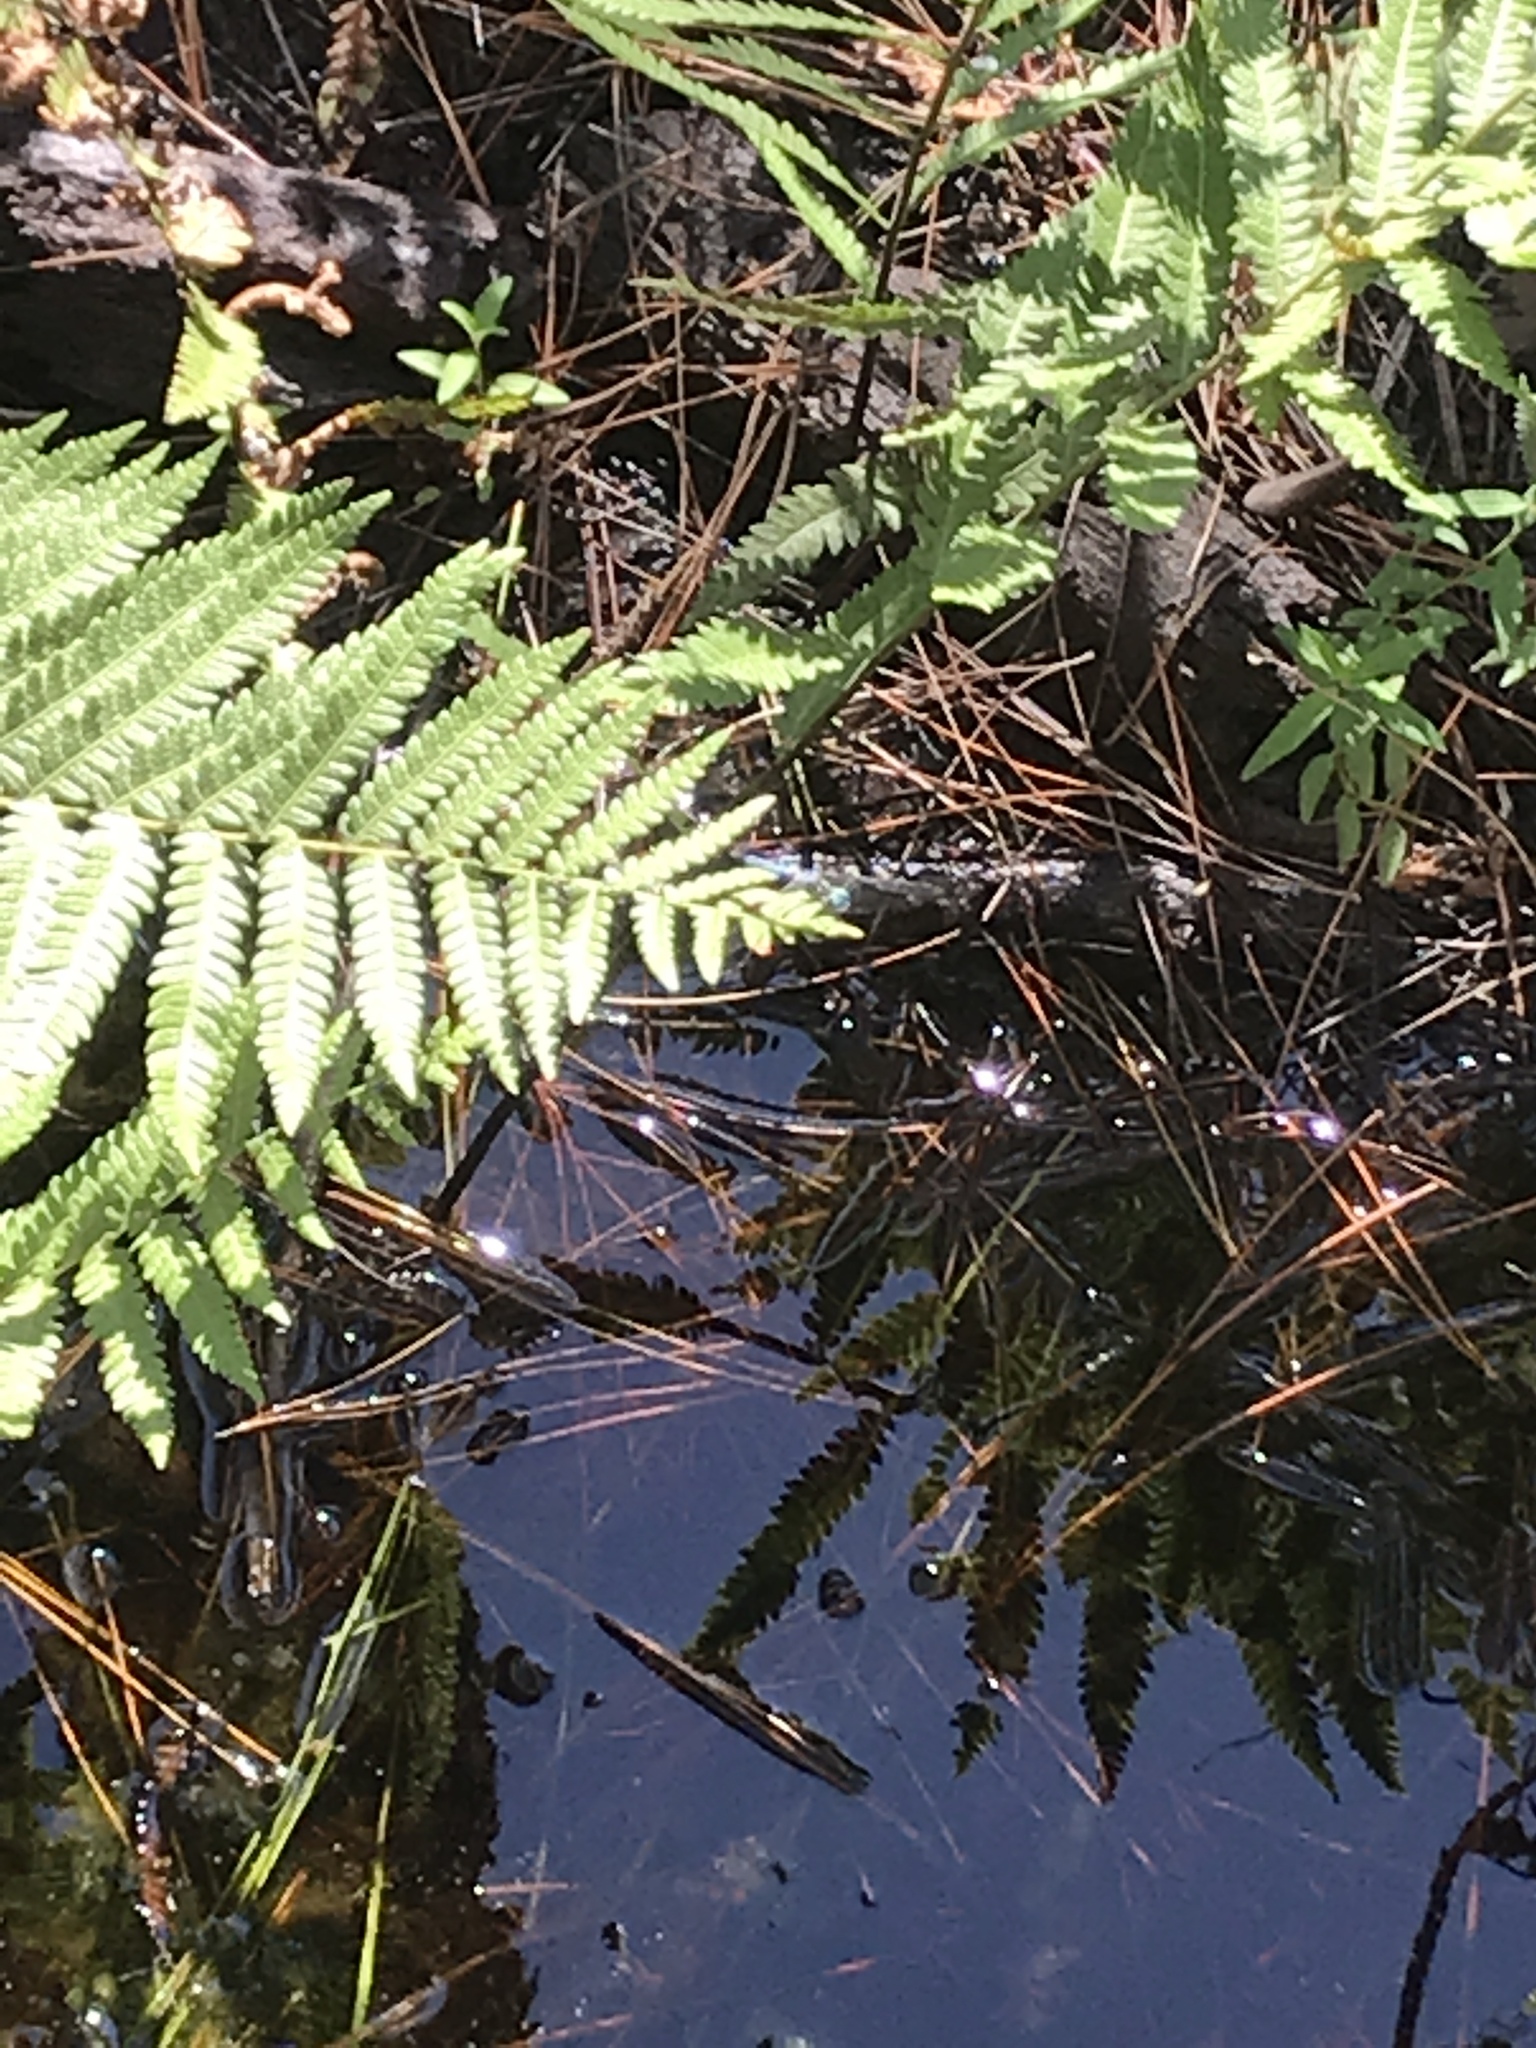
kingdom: Animalia
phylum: Arthropoda
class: Insecta
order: Odonata
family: Libellulidae
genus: Pachydiplax
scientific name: Pachydiplax longipennis
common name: Blue dasher
